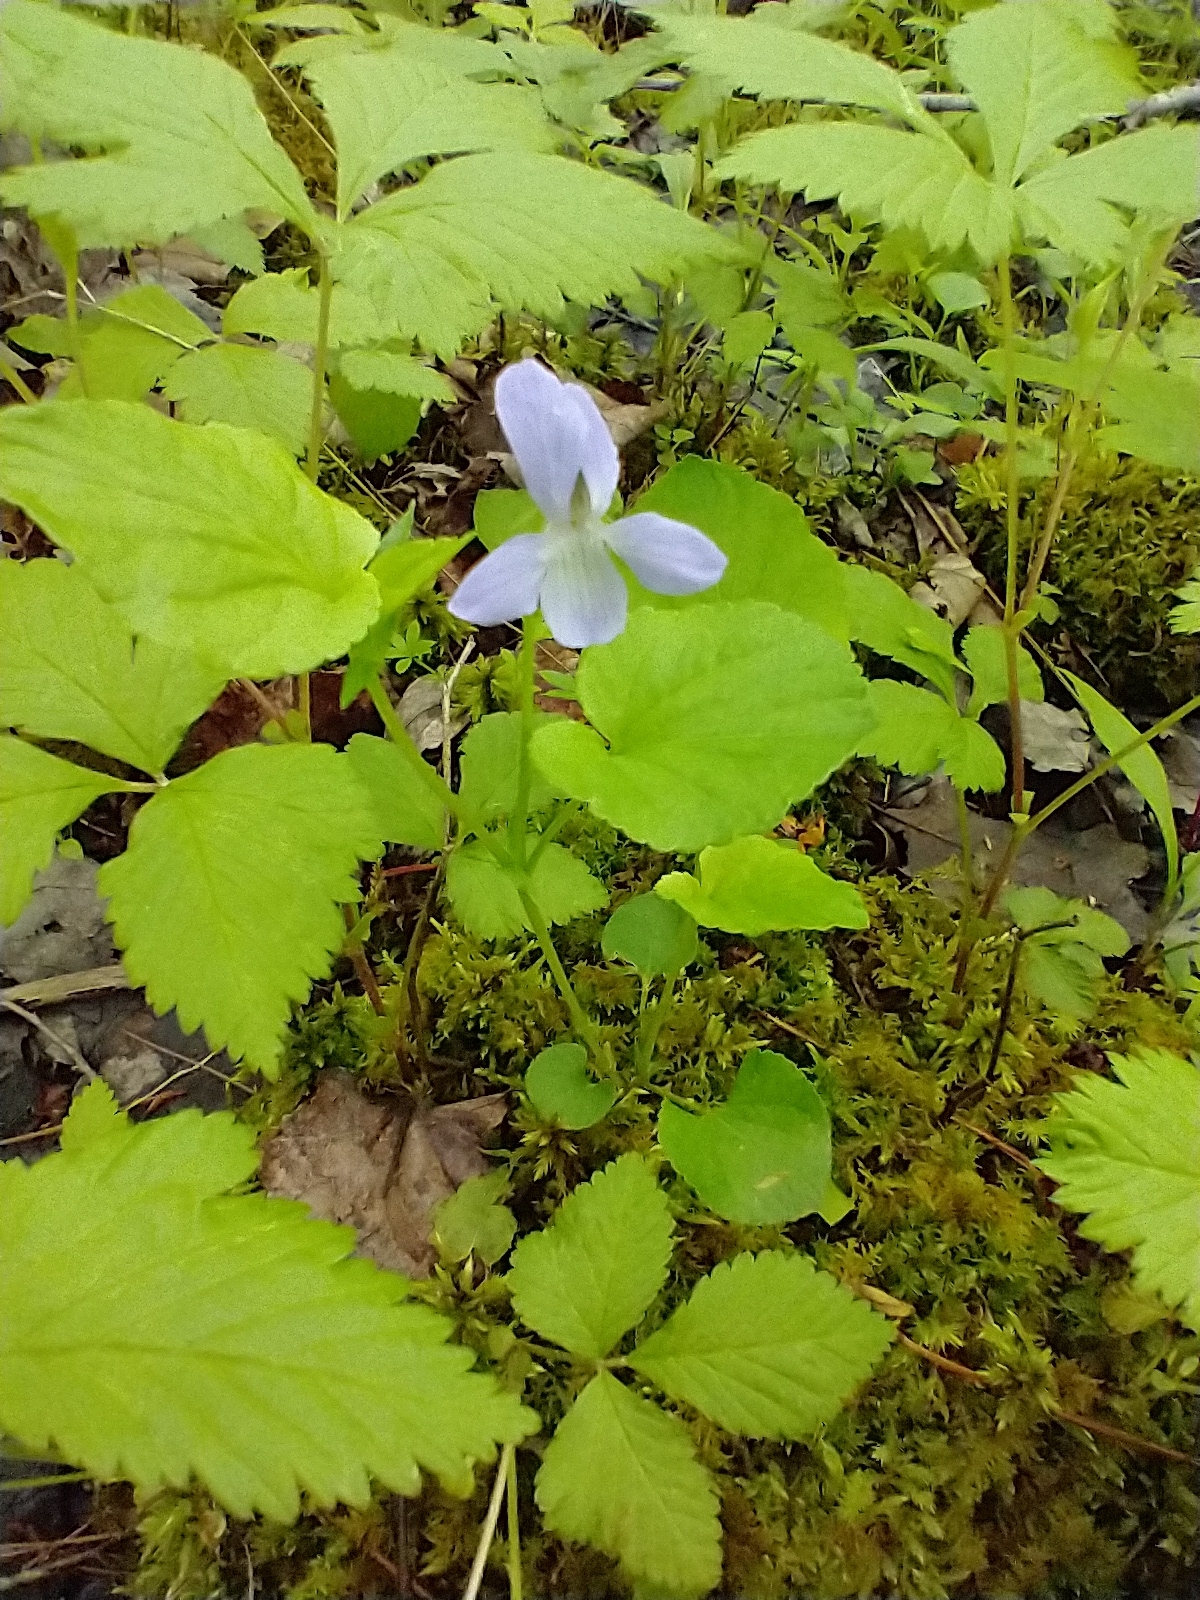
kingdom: Plantae
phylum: Tracheophyta
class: Magnoliopsida
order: Malpighiales
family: Violaceae
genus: Viola
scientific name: Viola labradorica
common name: Labrador violet
